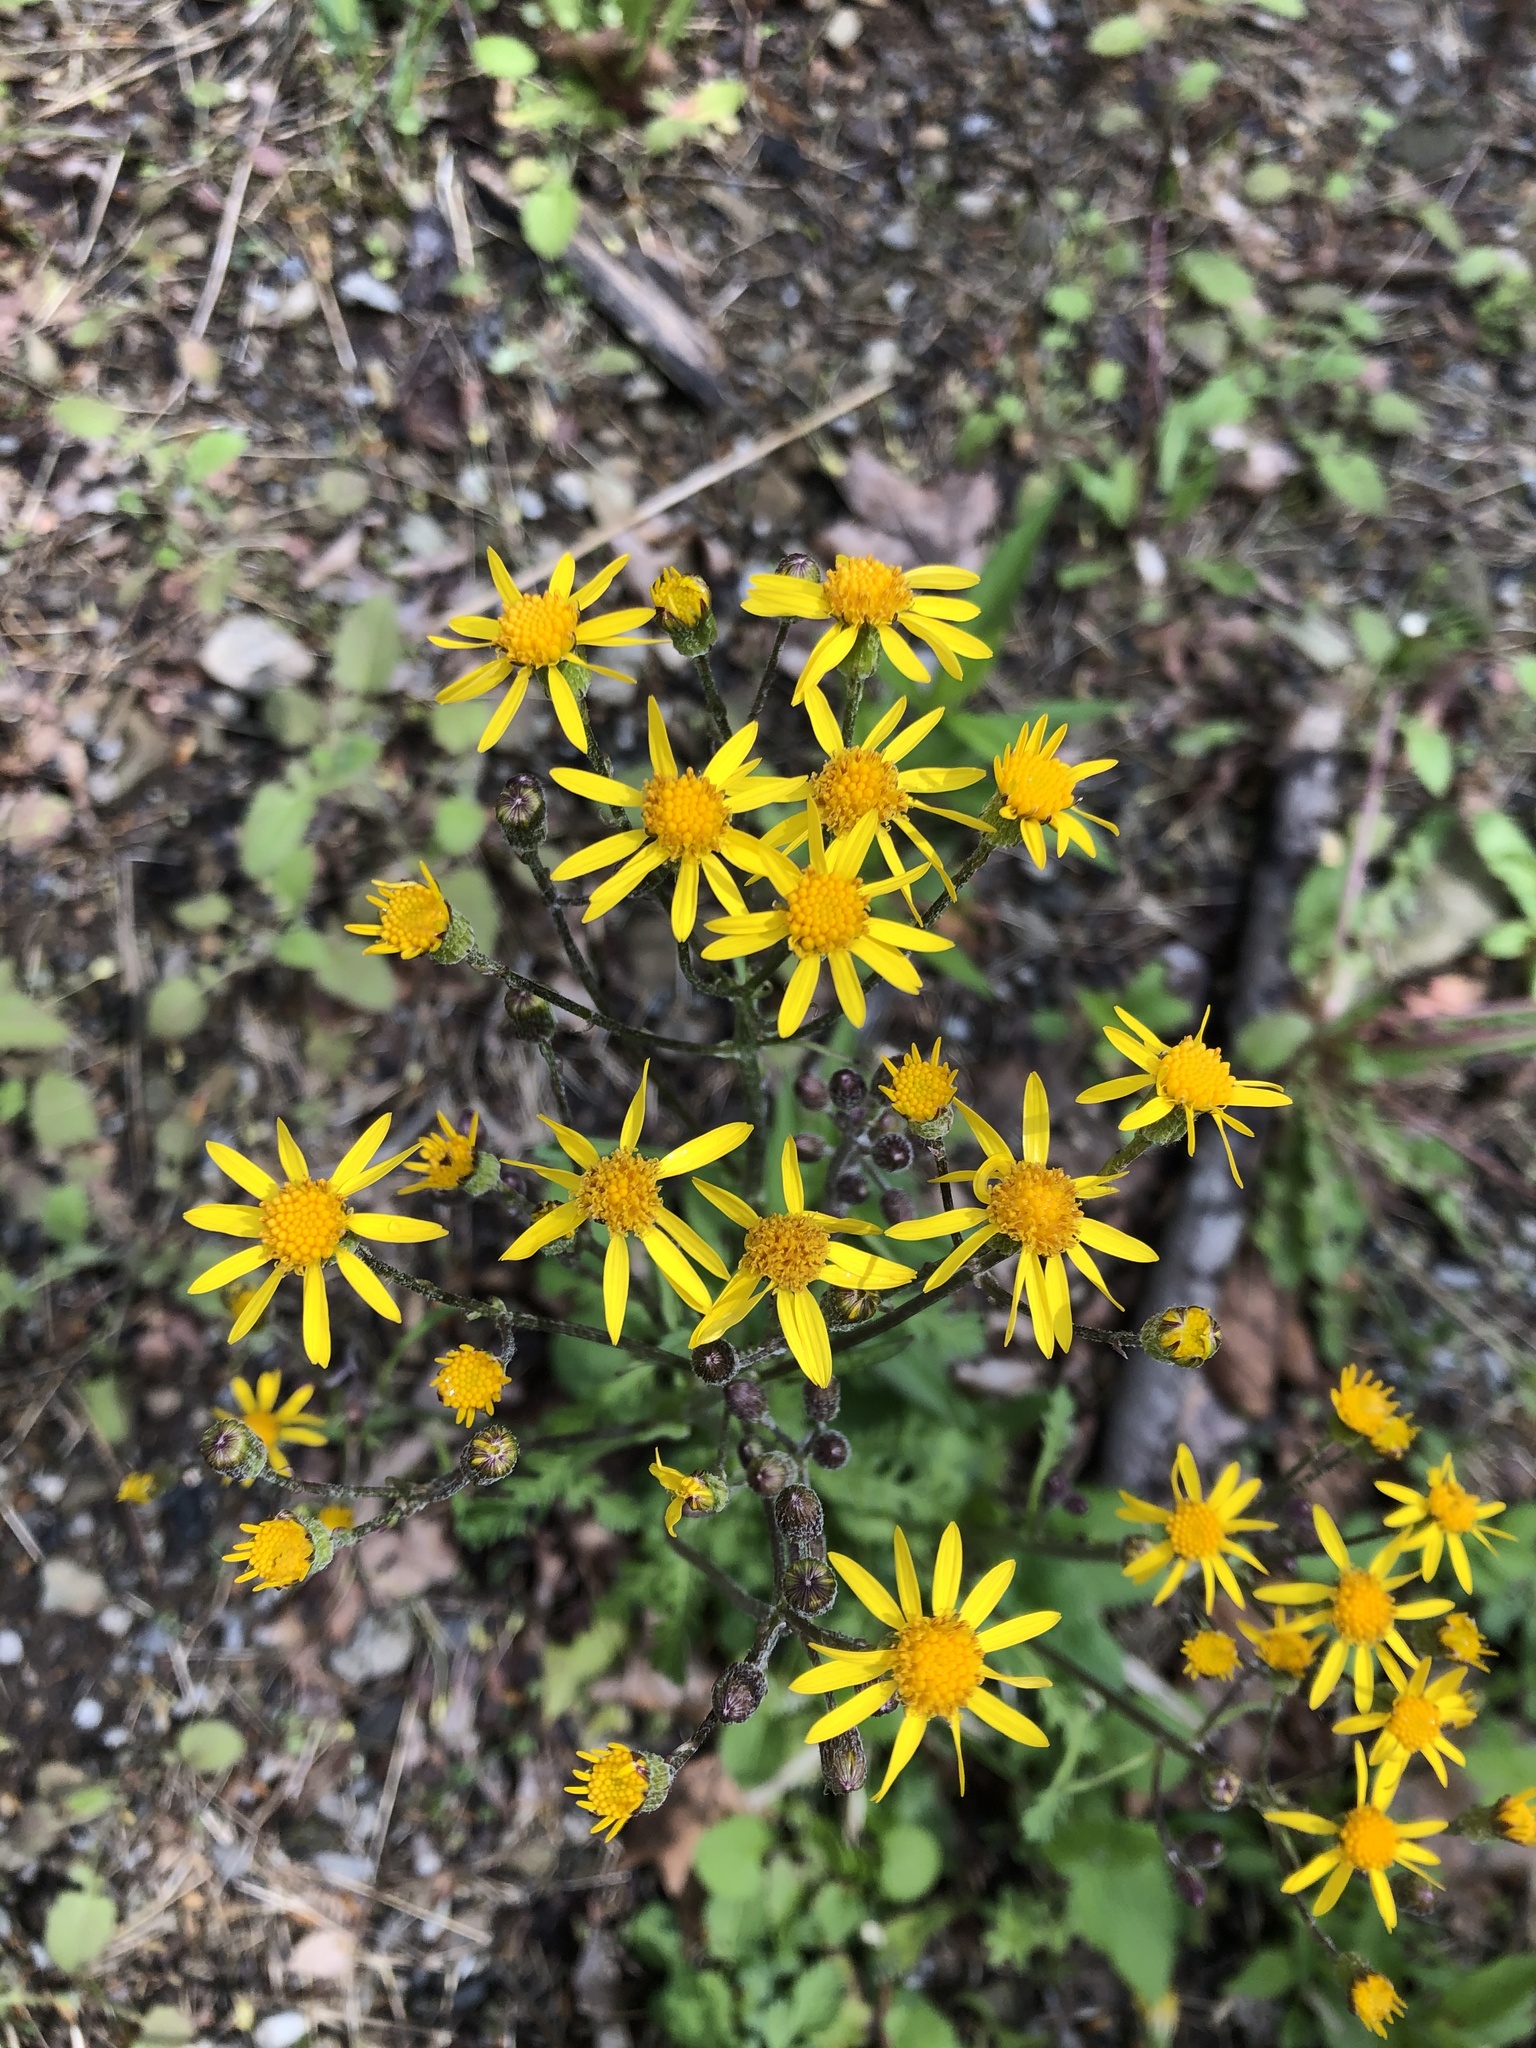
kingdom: Plantae
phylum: Tracheophyta
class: Magnoliopsida
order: Asterales
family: Asteraceae
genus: Packera
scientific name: Packera aurea
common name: Golden groundsel
